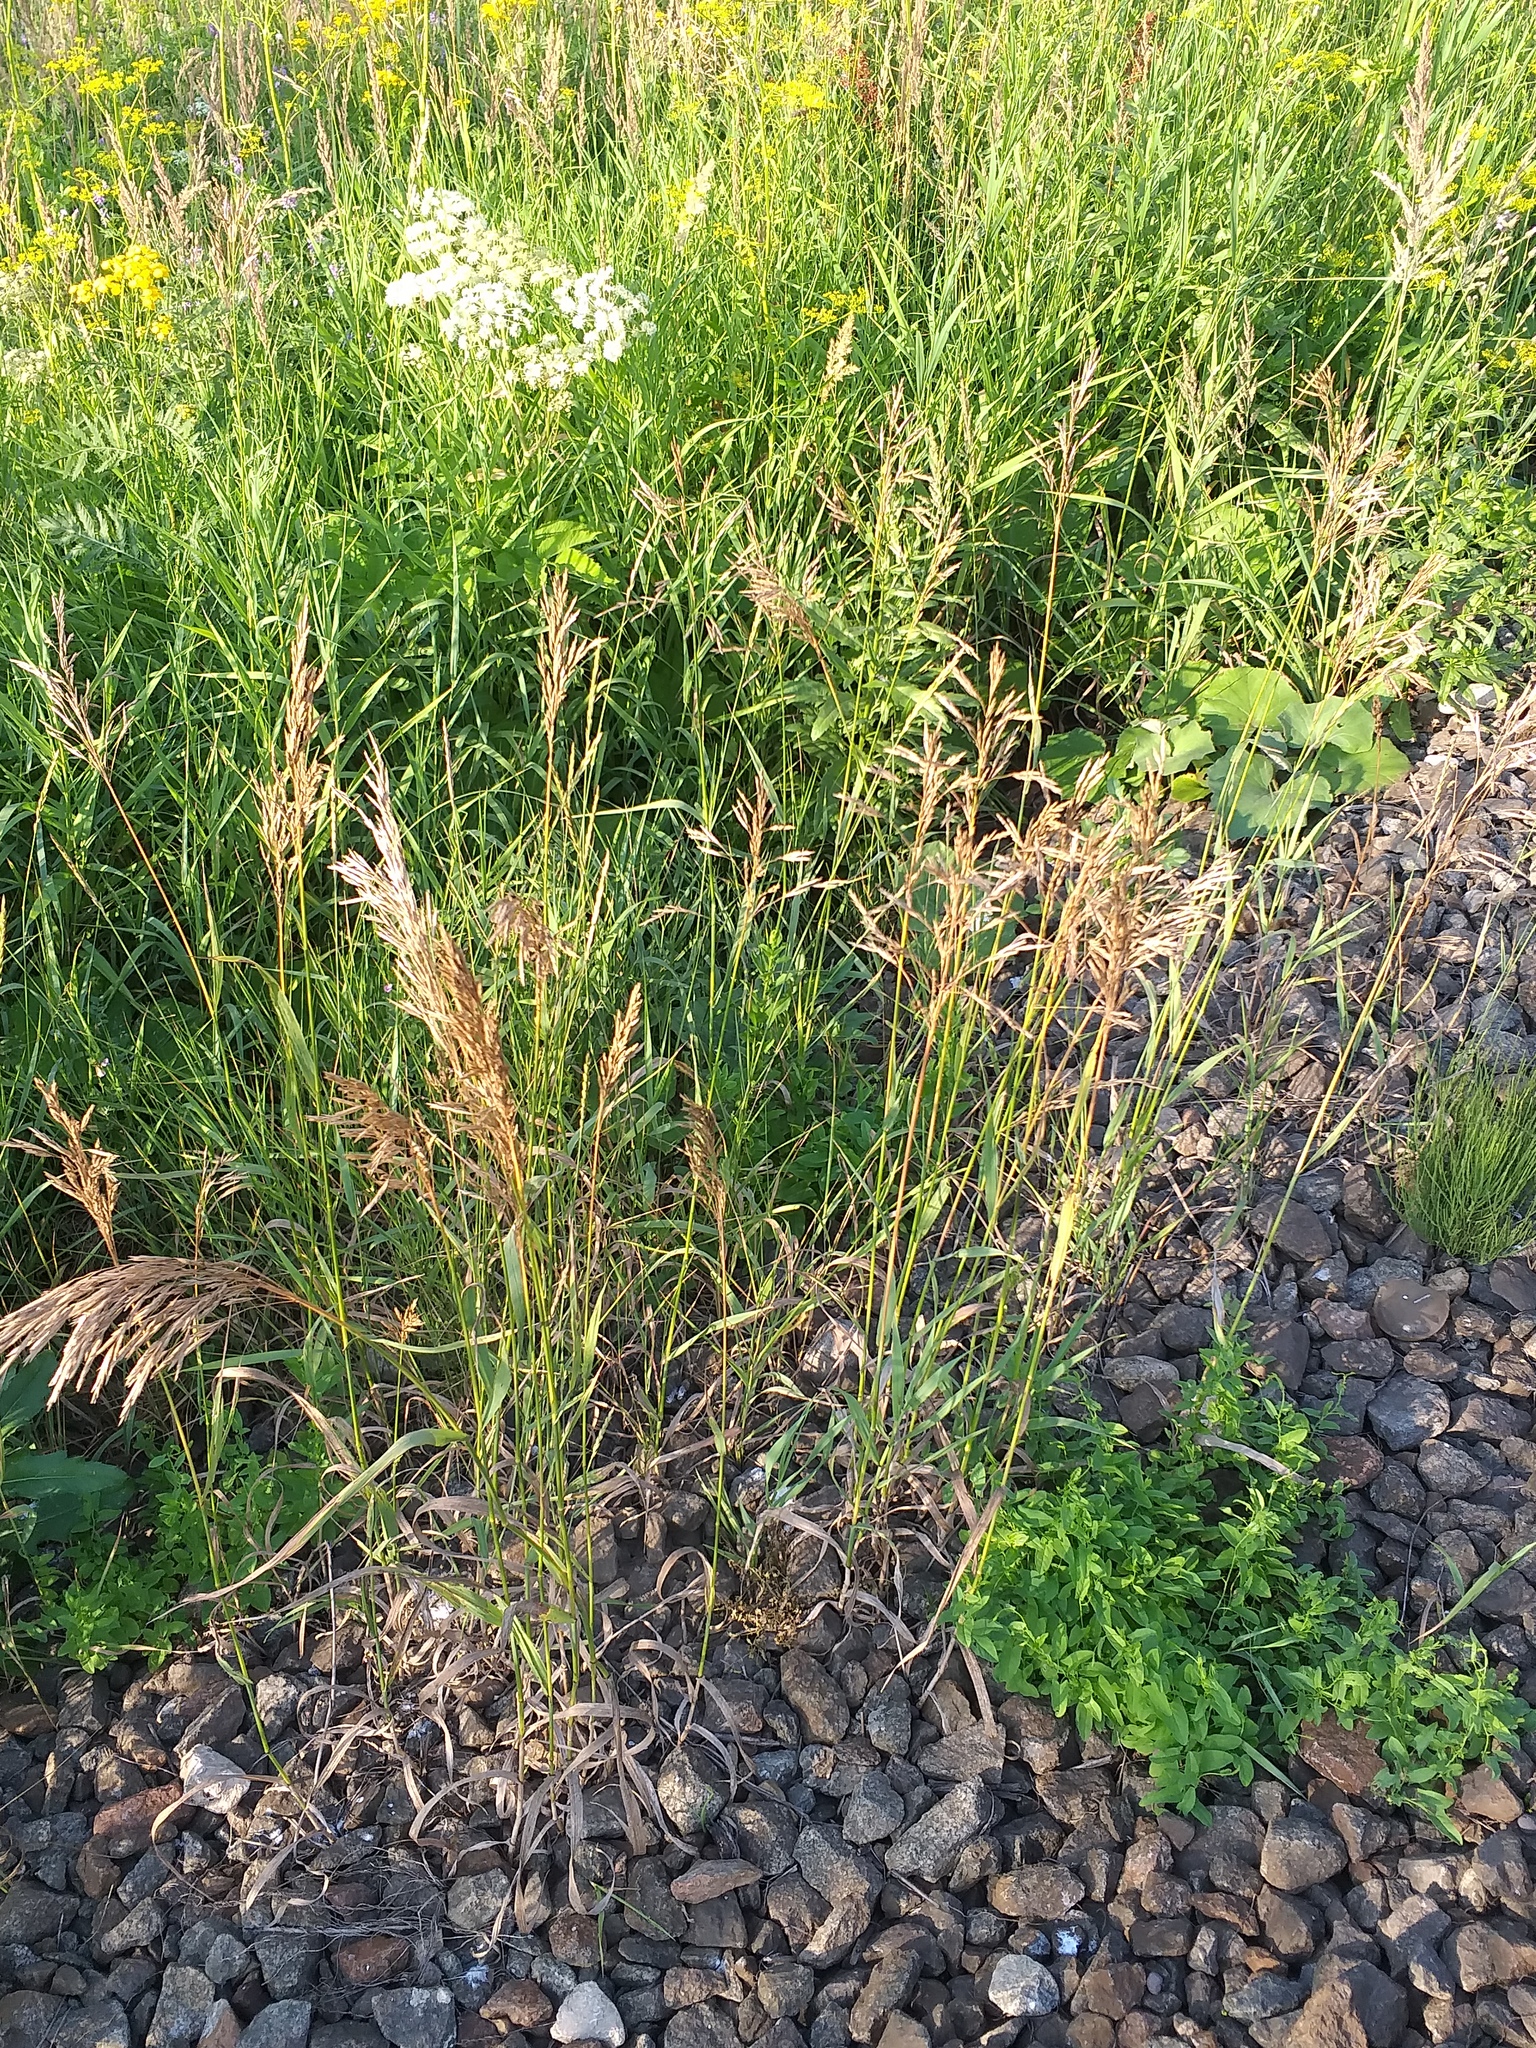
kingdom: Plantae
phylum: Tracheophyta
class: Liliopsida
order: Poales
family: Poaceae
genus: Bromus
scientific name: Bromus inermis
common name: Smooth brome
